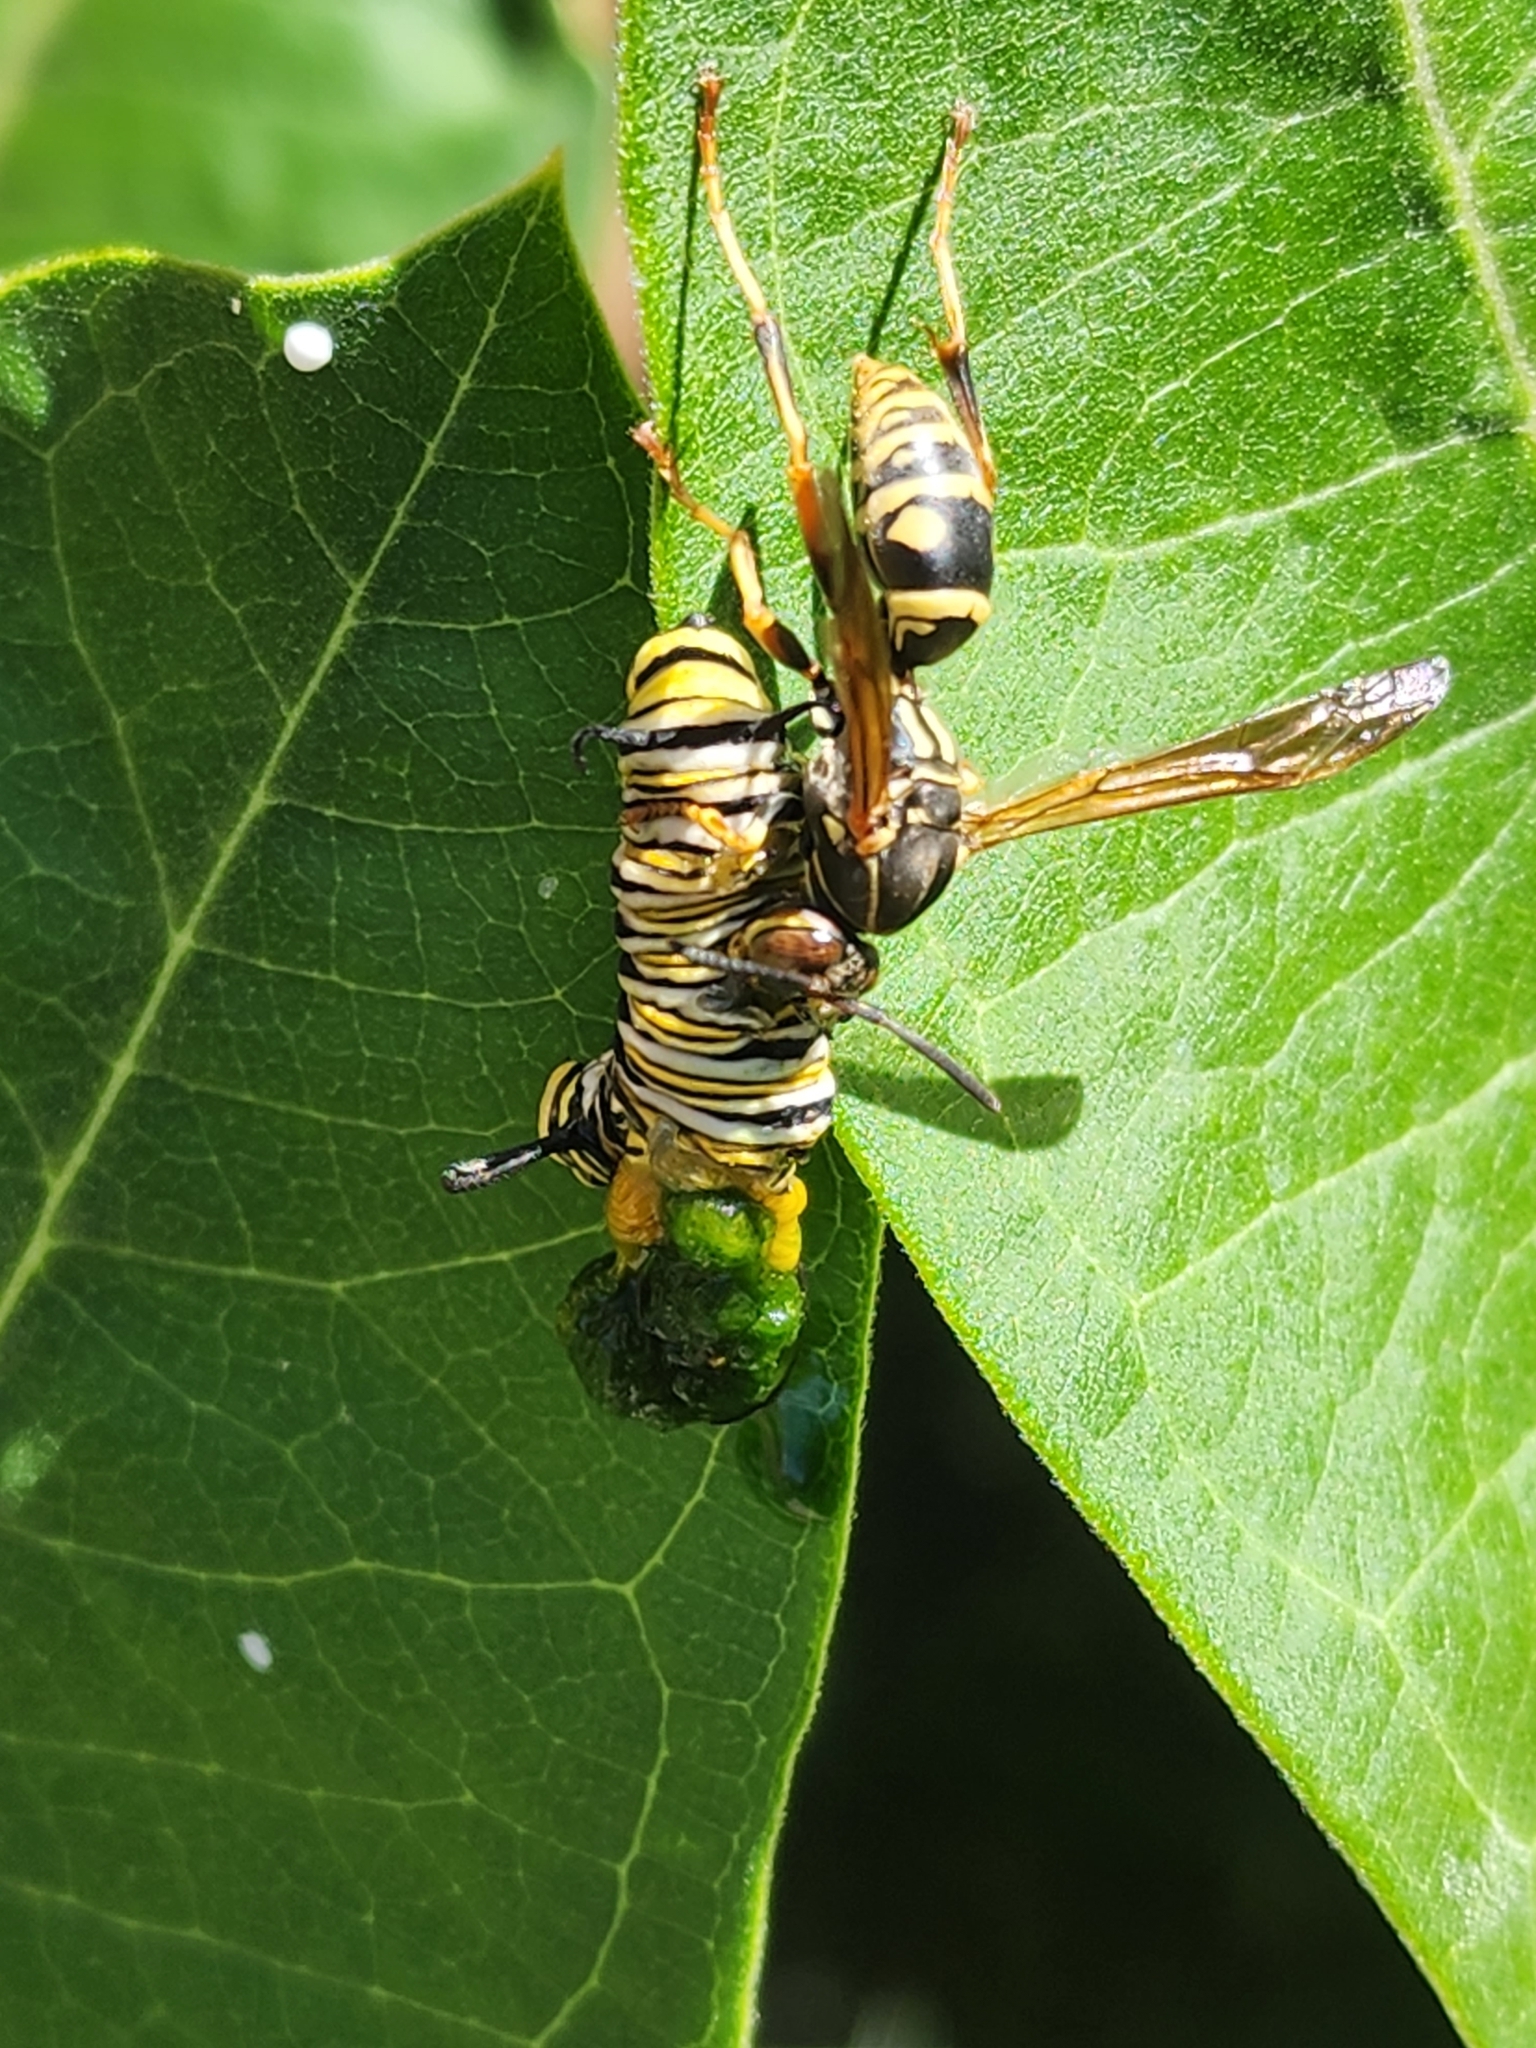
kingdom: Animalia
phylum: Arthropoda
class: Insecta
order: Lepidoptera
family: Nymphalidae
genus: Danaus
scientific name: Danaus plexippus
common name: Monarch
